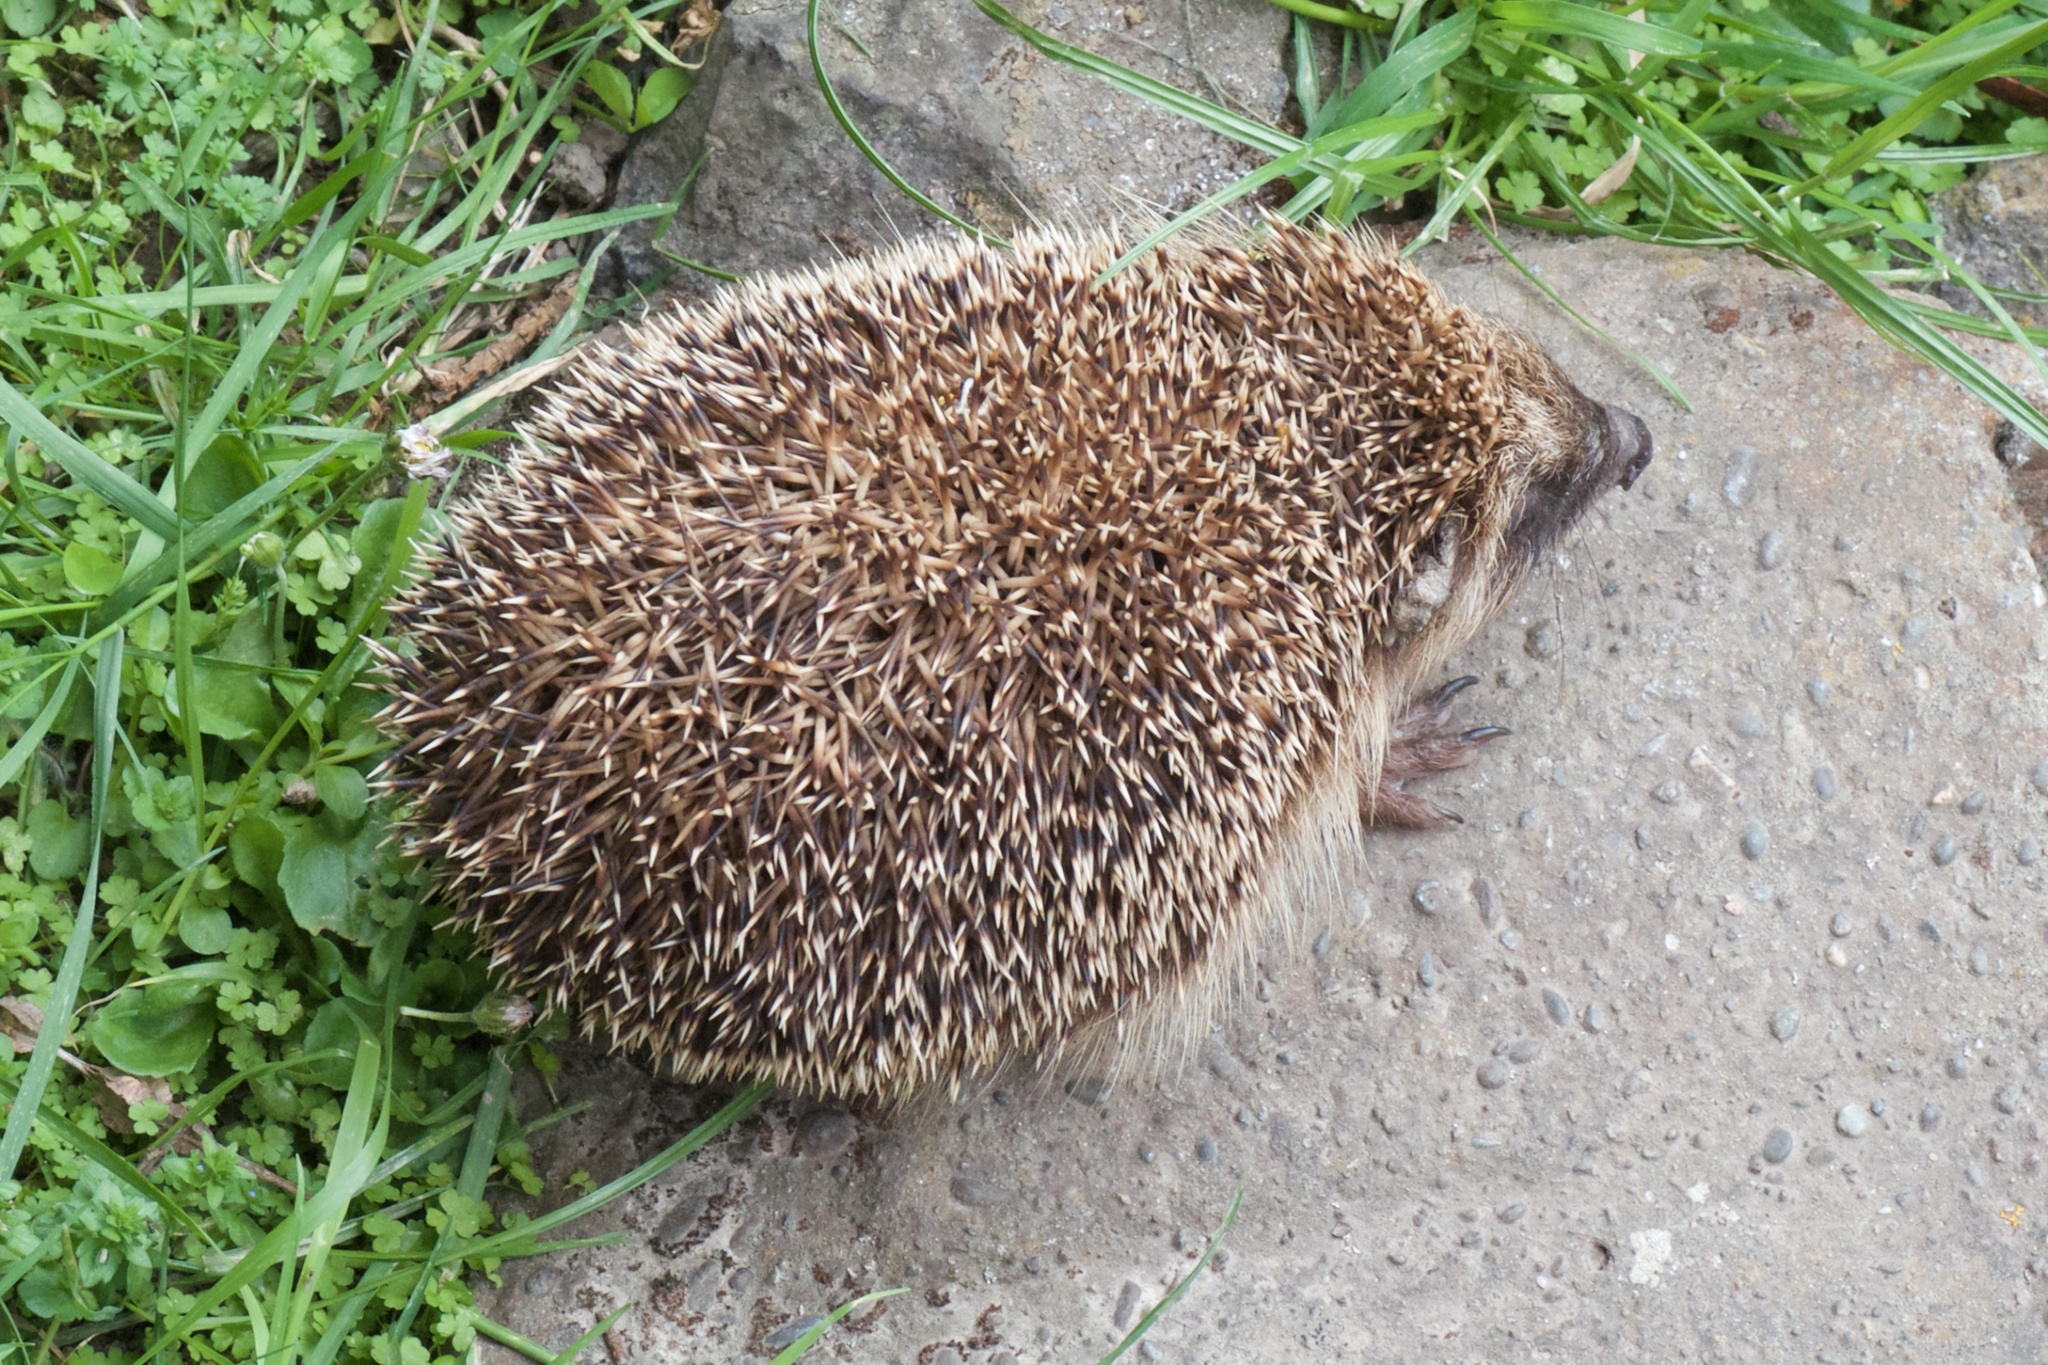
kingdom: Animalia
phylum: Chordata
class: Mammalia
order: Erinaceomorpha
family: Erinaceidae
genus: Erinaceus
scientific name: Erinaceus europaeus
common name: West european hedgehog
